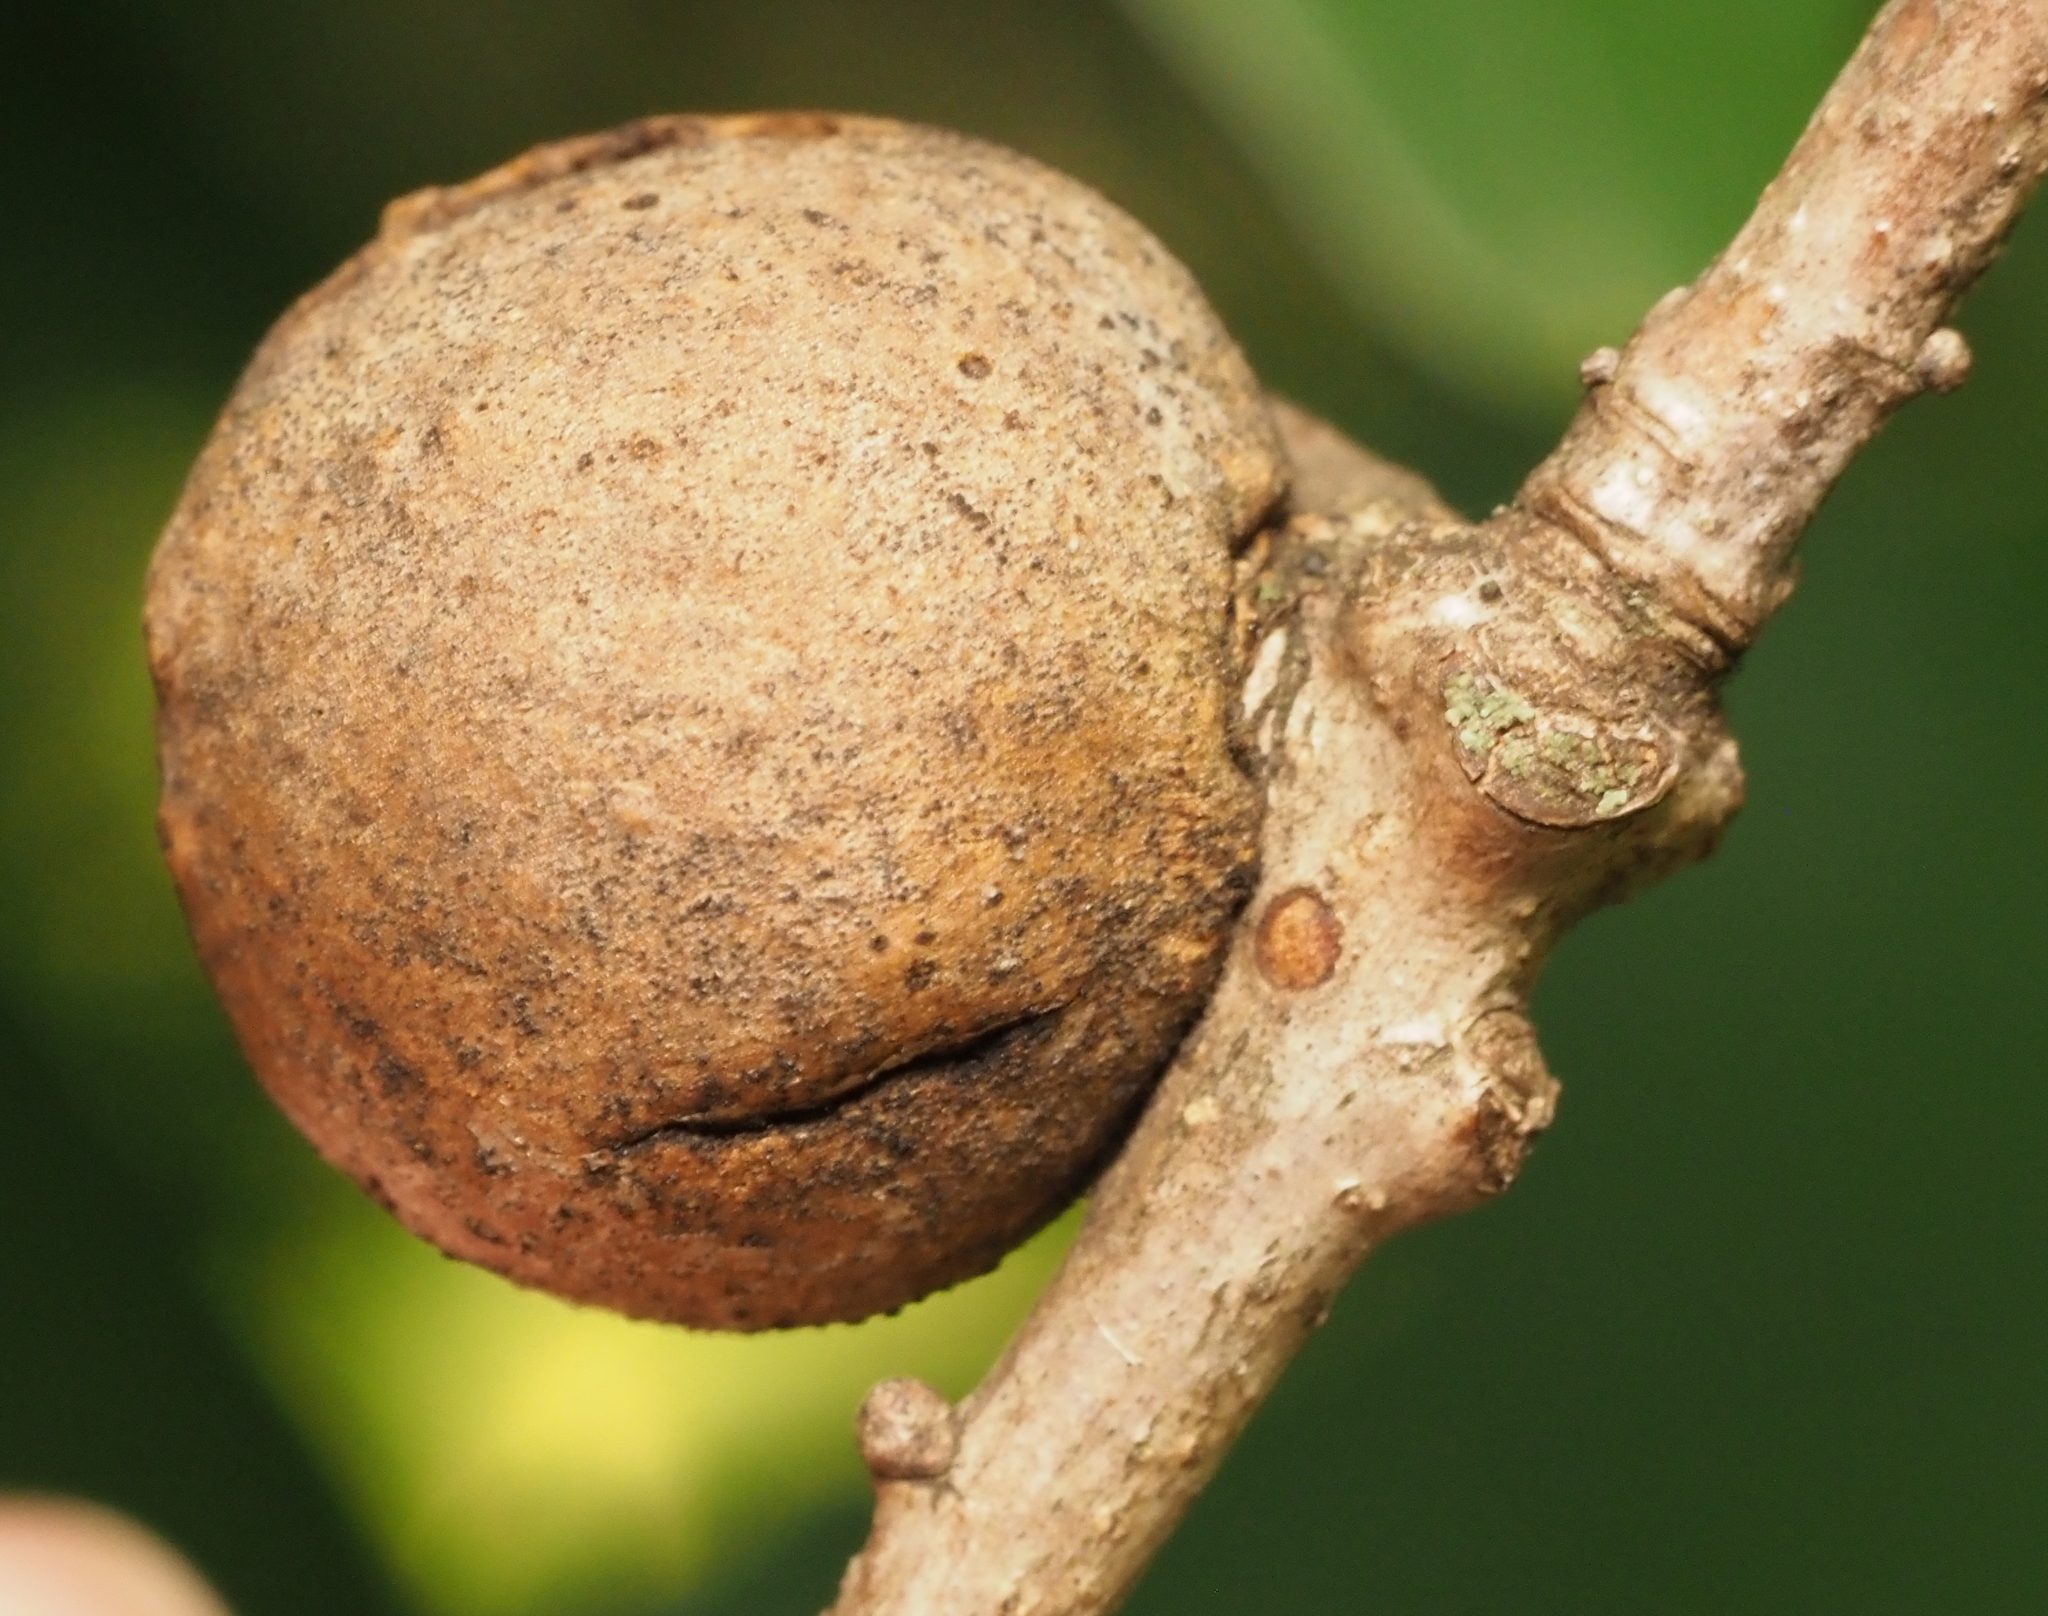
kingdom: Animalia
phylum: Arthropoda
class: Insecta
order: Hymenoptera
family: Cynipidae
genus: Disholcaspis
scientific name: Disholcaspis quercusglobulus
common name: Round bullet gall wasp
